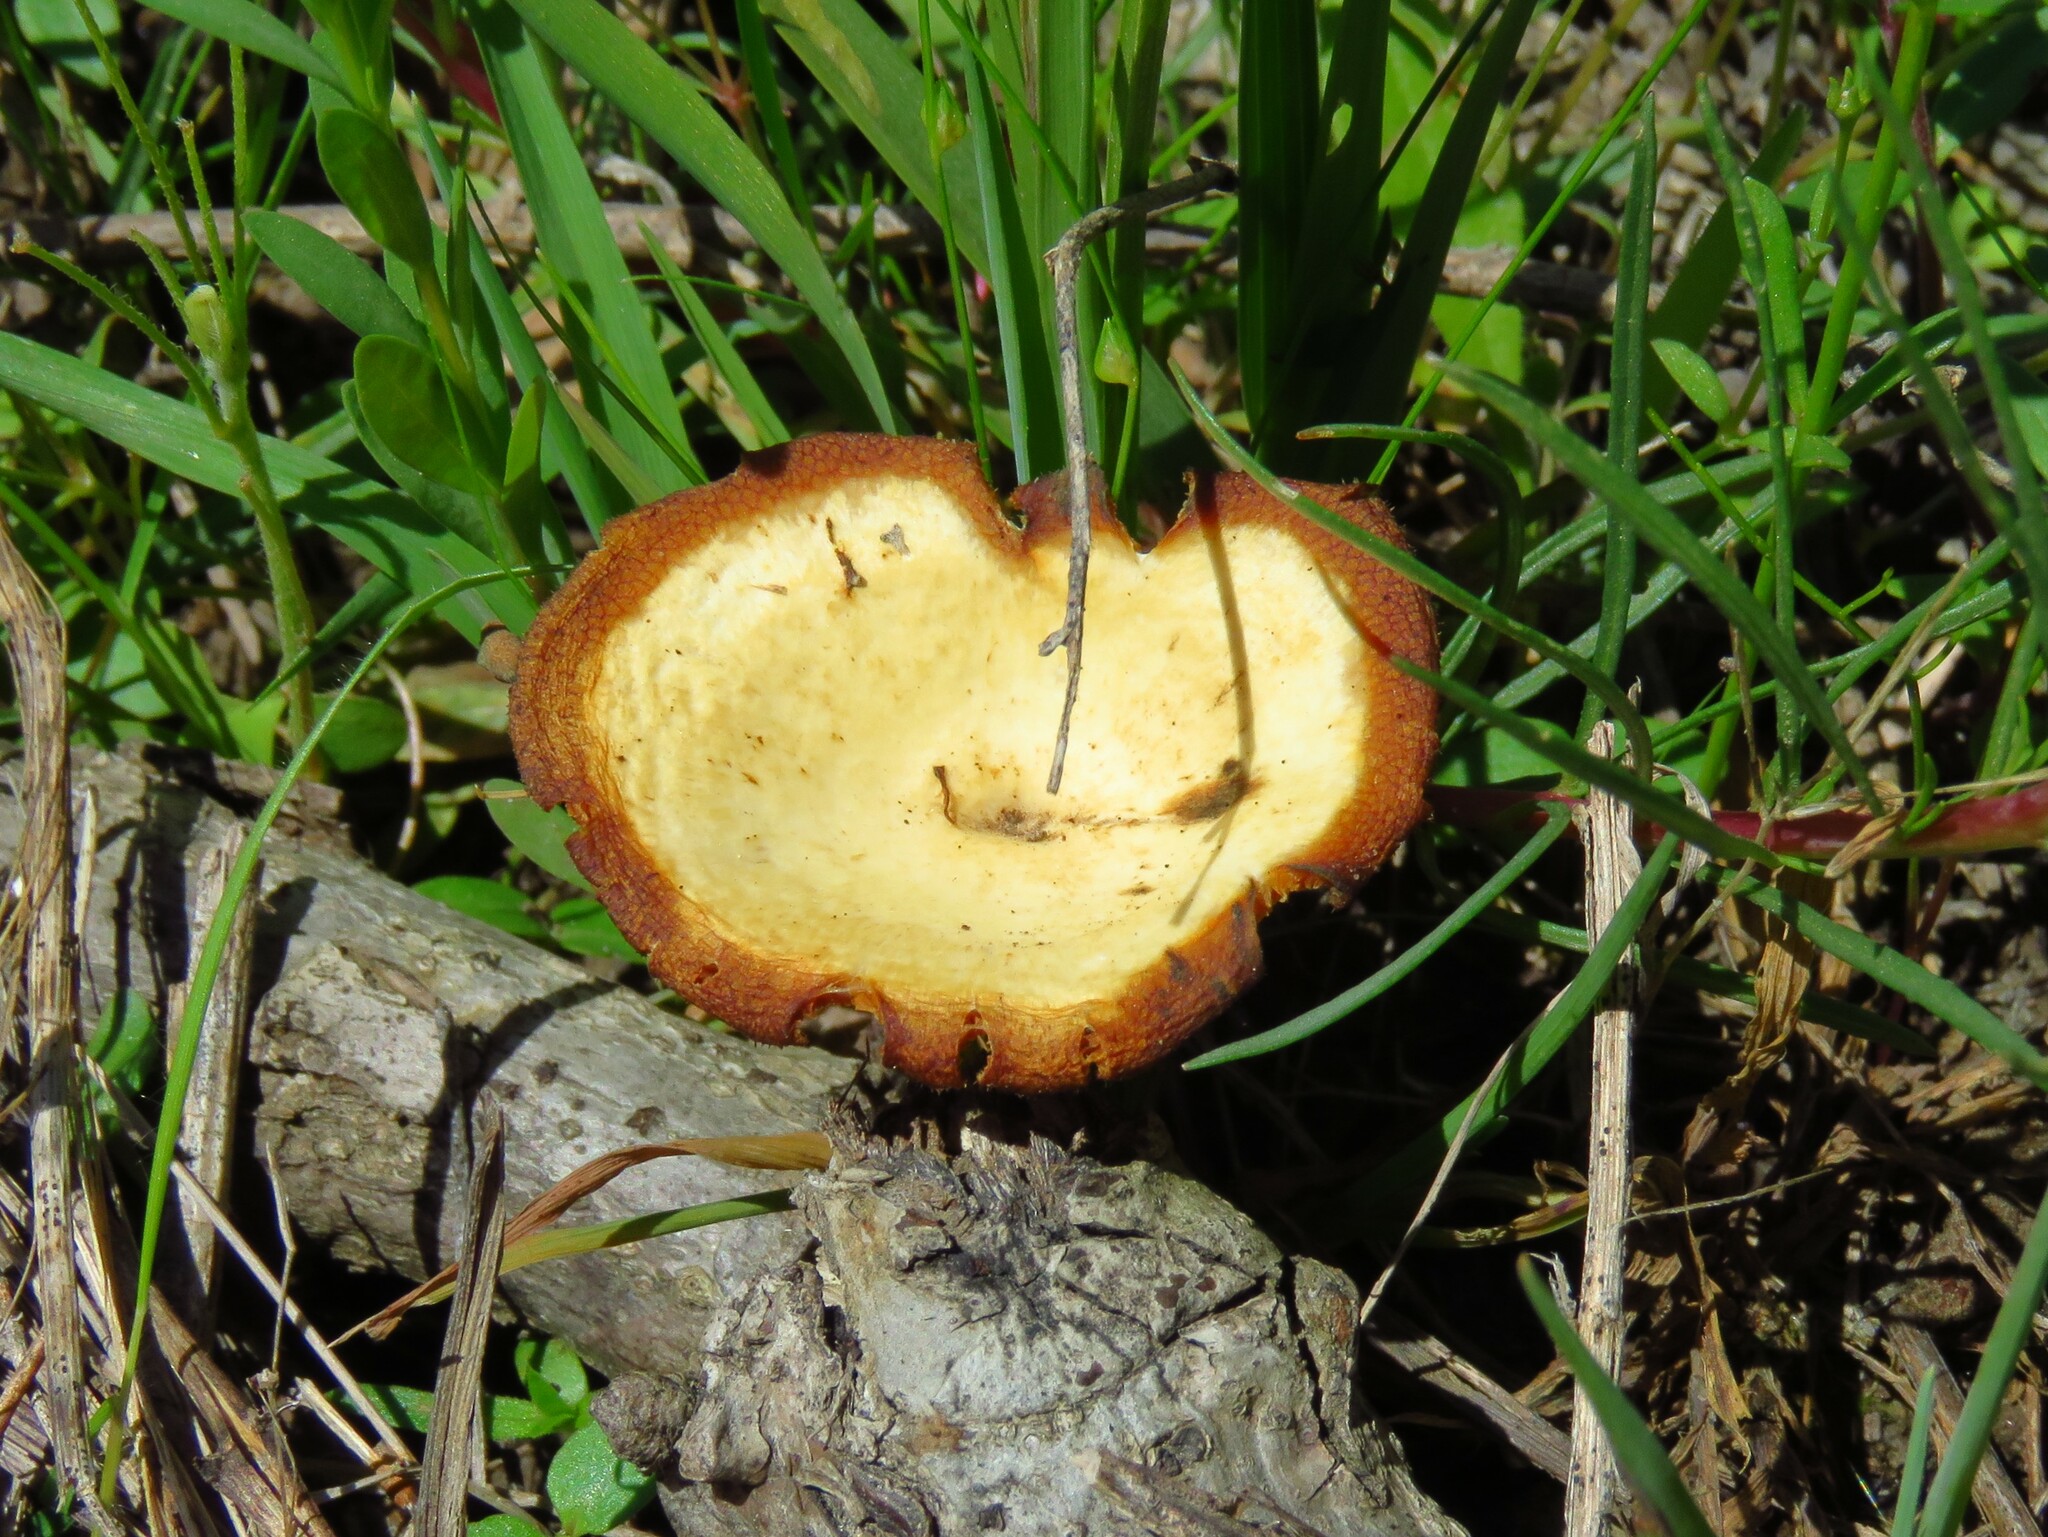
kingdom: Fungi
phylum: Basidiomycota
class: Agaricomycetes
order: Polyporales
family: Polyporaceae
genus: Lentinus
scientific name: Lentinus arcularius
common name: Spring polypore
